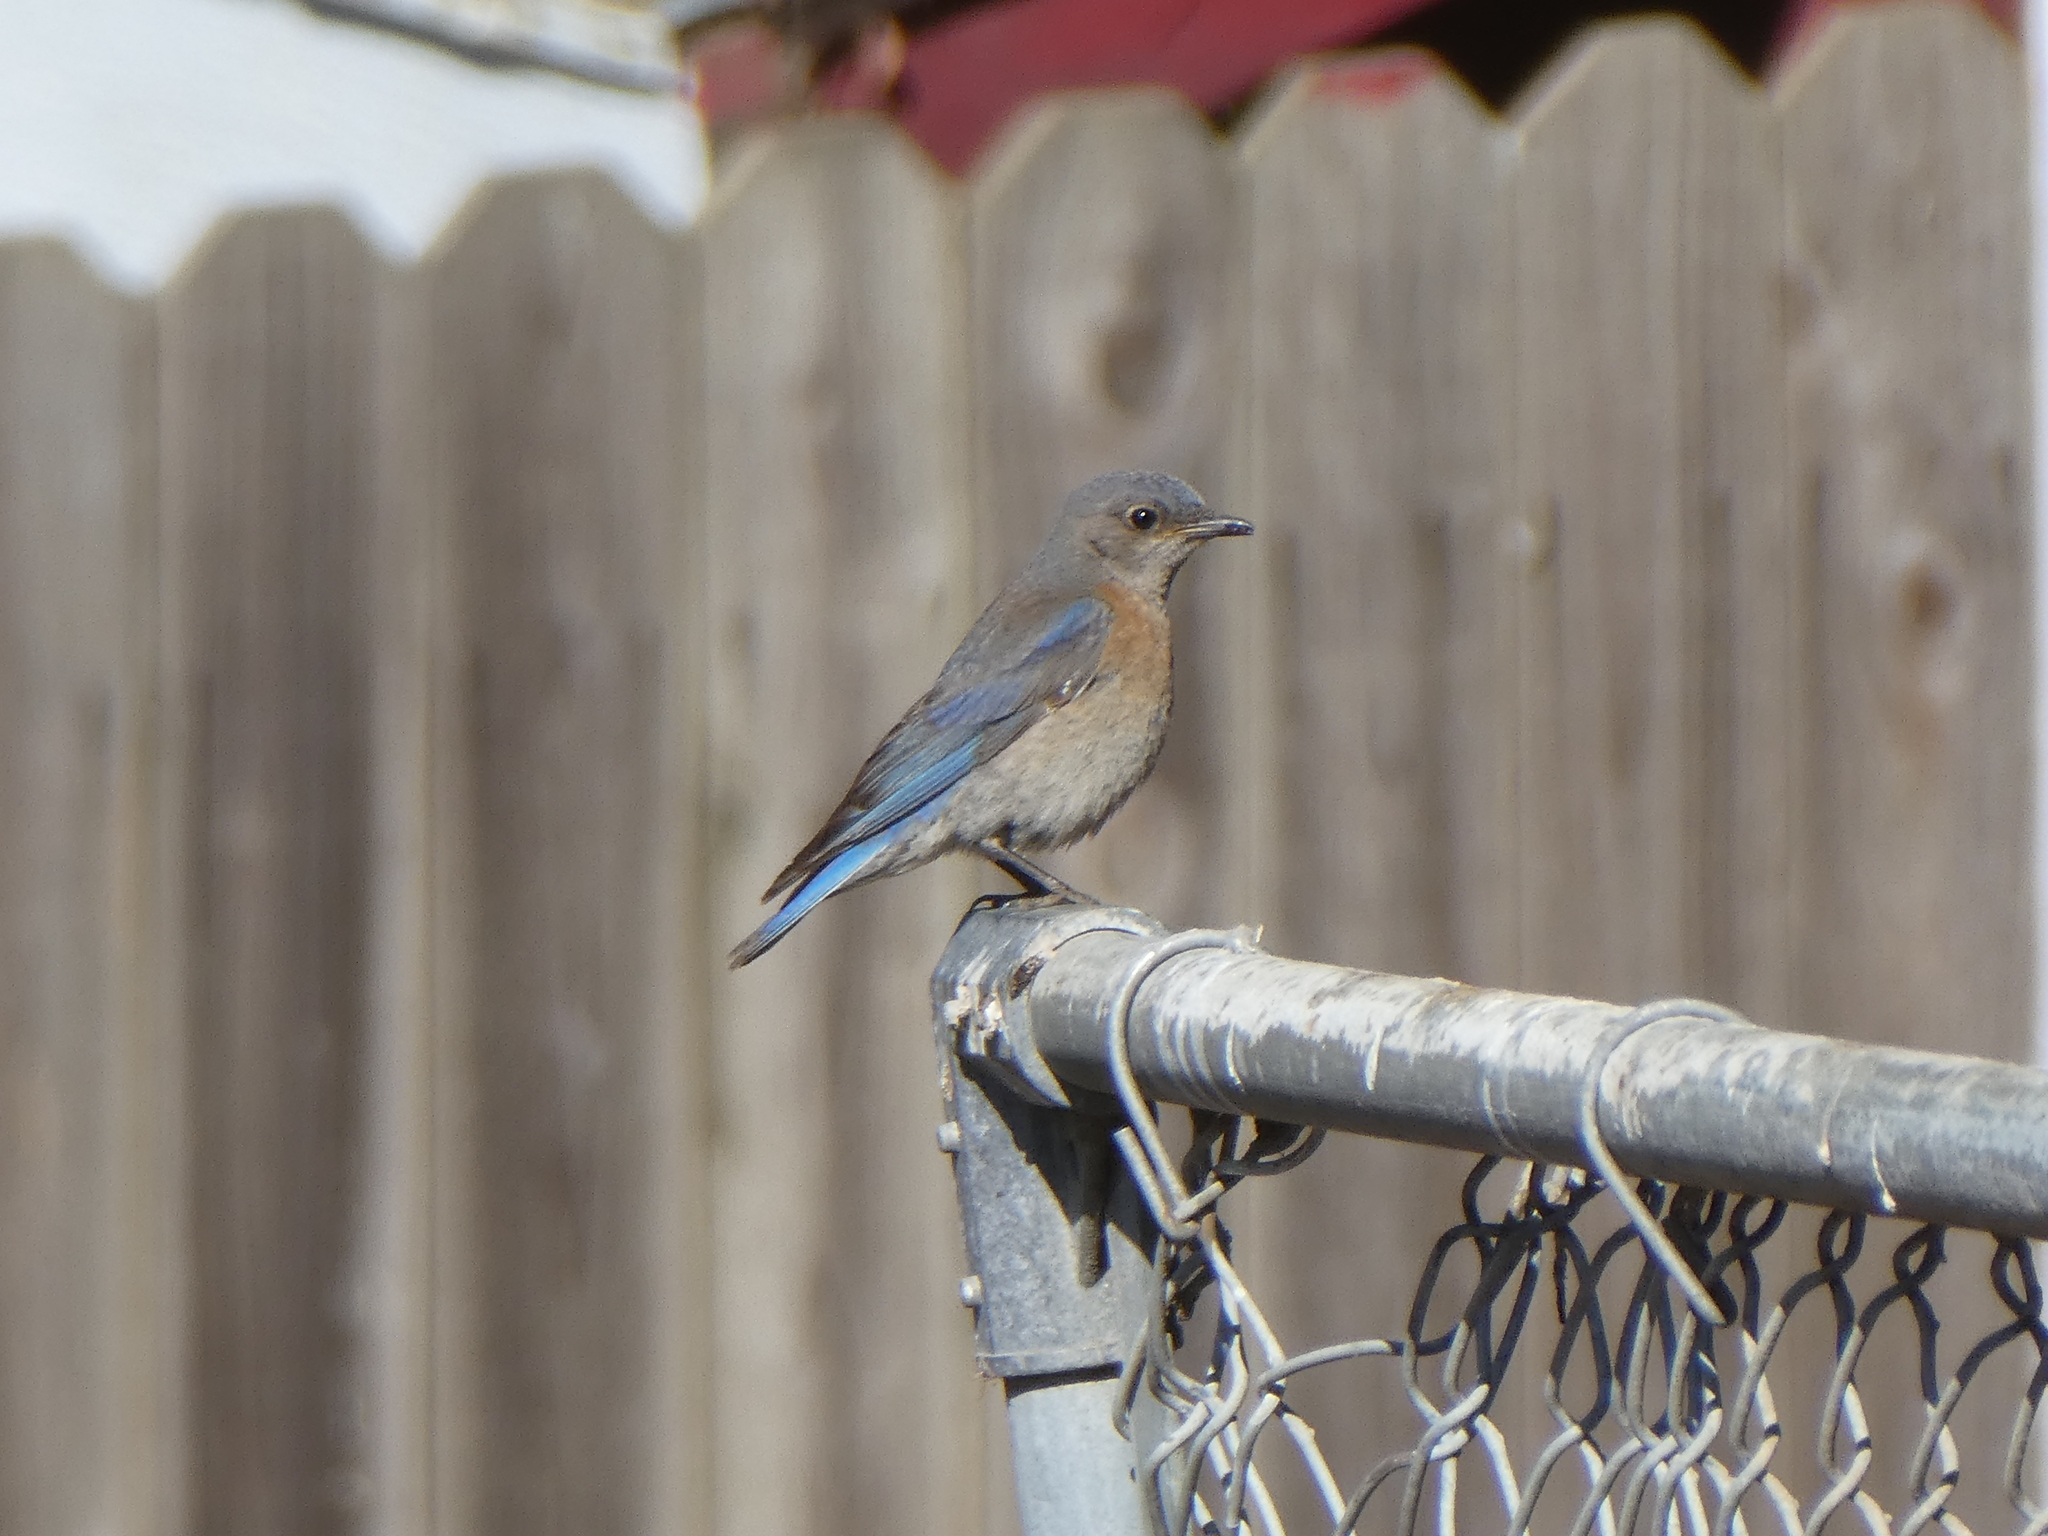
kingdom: Animalia
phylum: Chordata
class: Aves
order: Passeriformes
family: Turdidae
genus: Sialia
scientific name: Sialia mexicana
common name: Western bluebird
